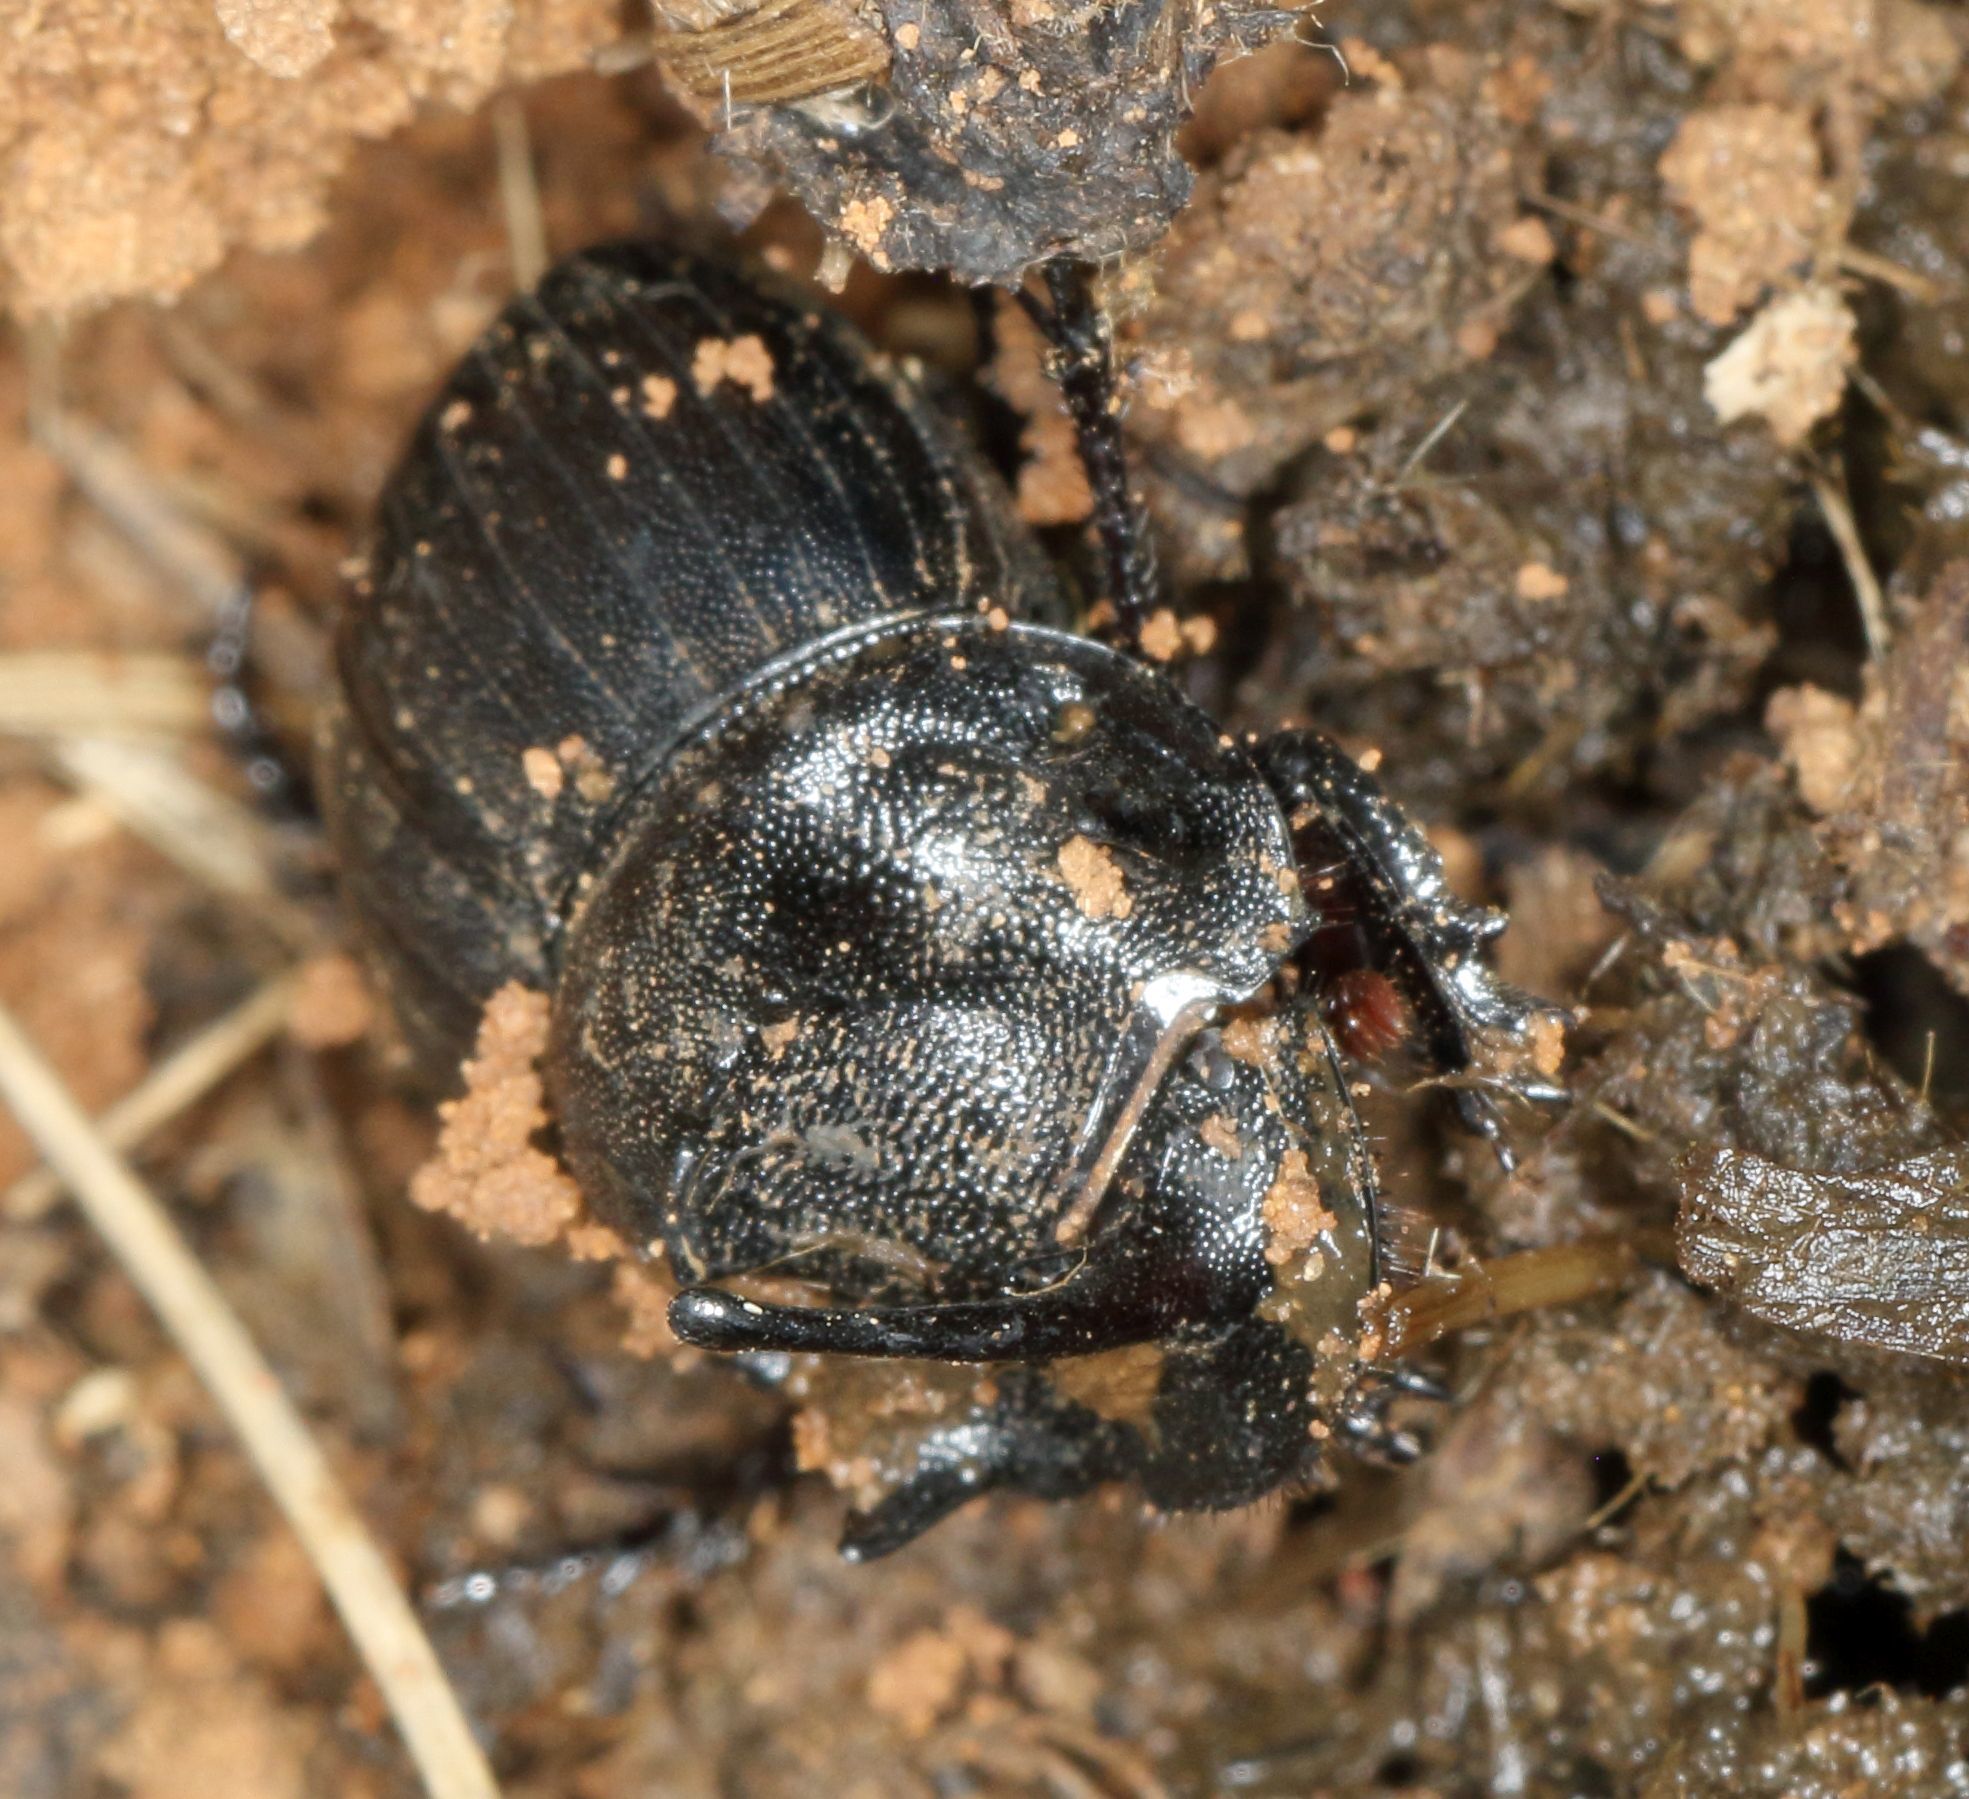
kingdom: Animalia
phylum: Arthropoda
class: Insecta
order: Coleoptera
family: Scarabaeidae
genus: Copris
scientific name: Copris caelatus
